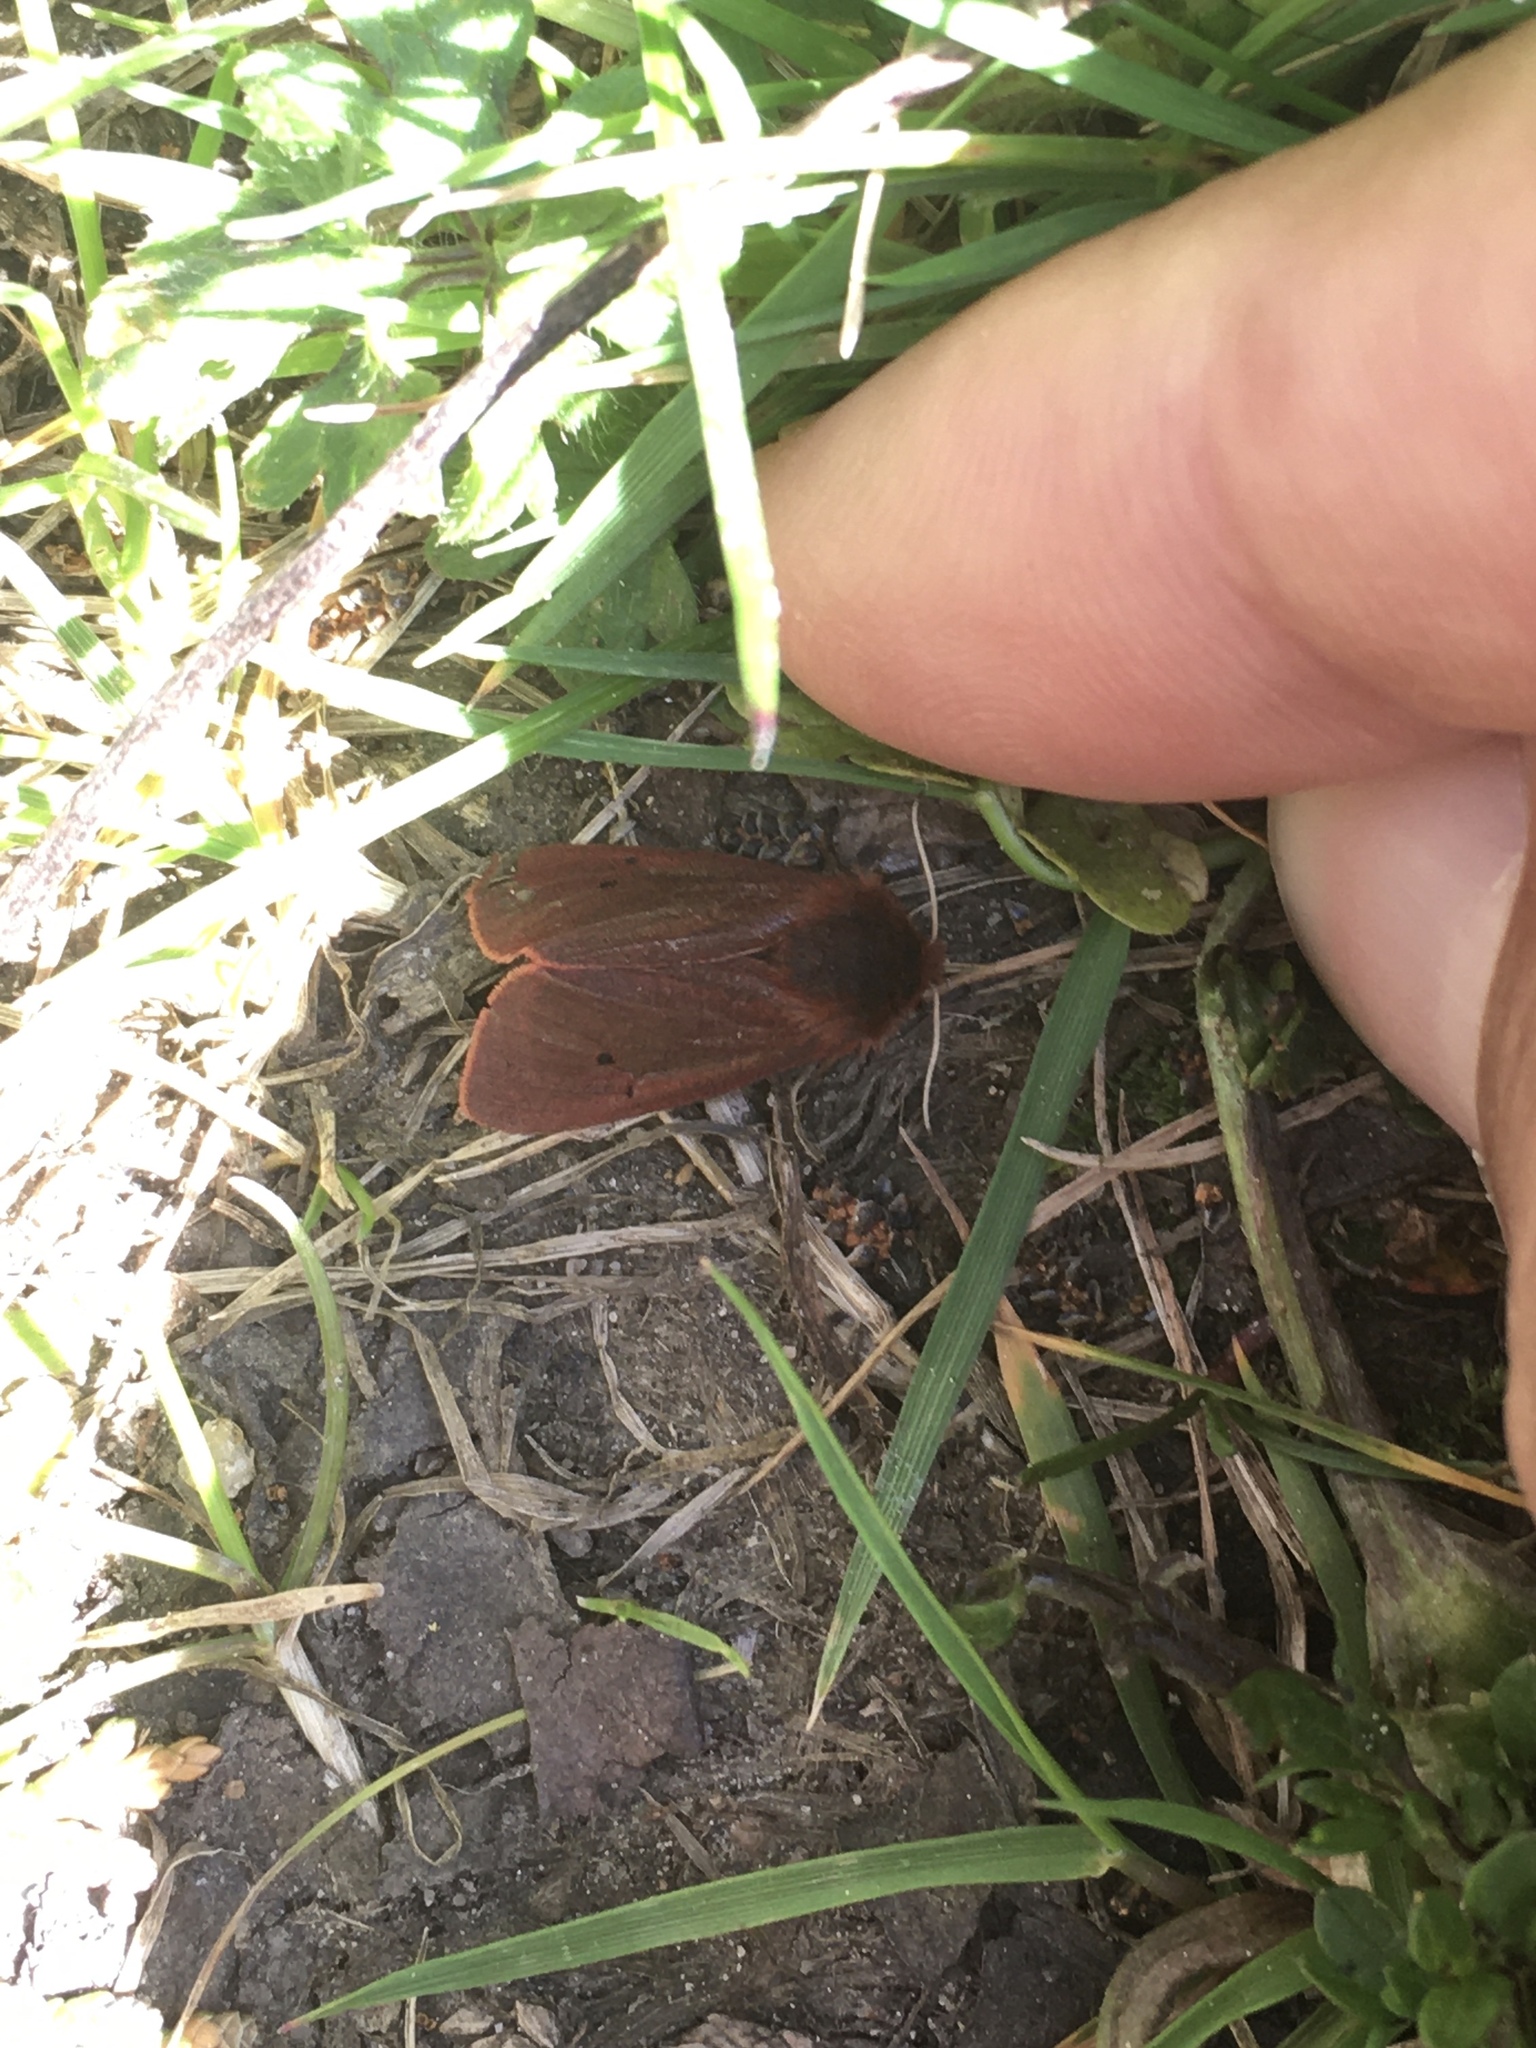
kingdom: Animalia
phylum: Arthropoda
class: Insecta
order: Lepidoptera
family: Erebidae
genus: Phragmatobia
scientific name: Phragmatobia fuliginosa
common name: Ruby tiger
